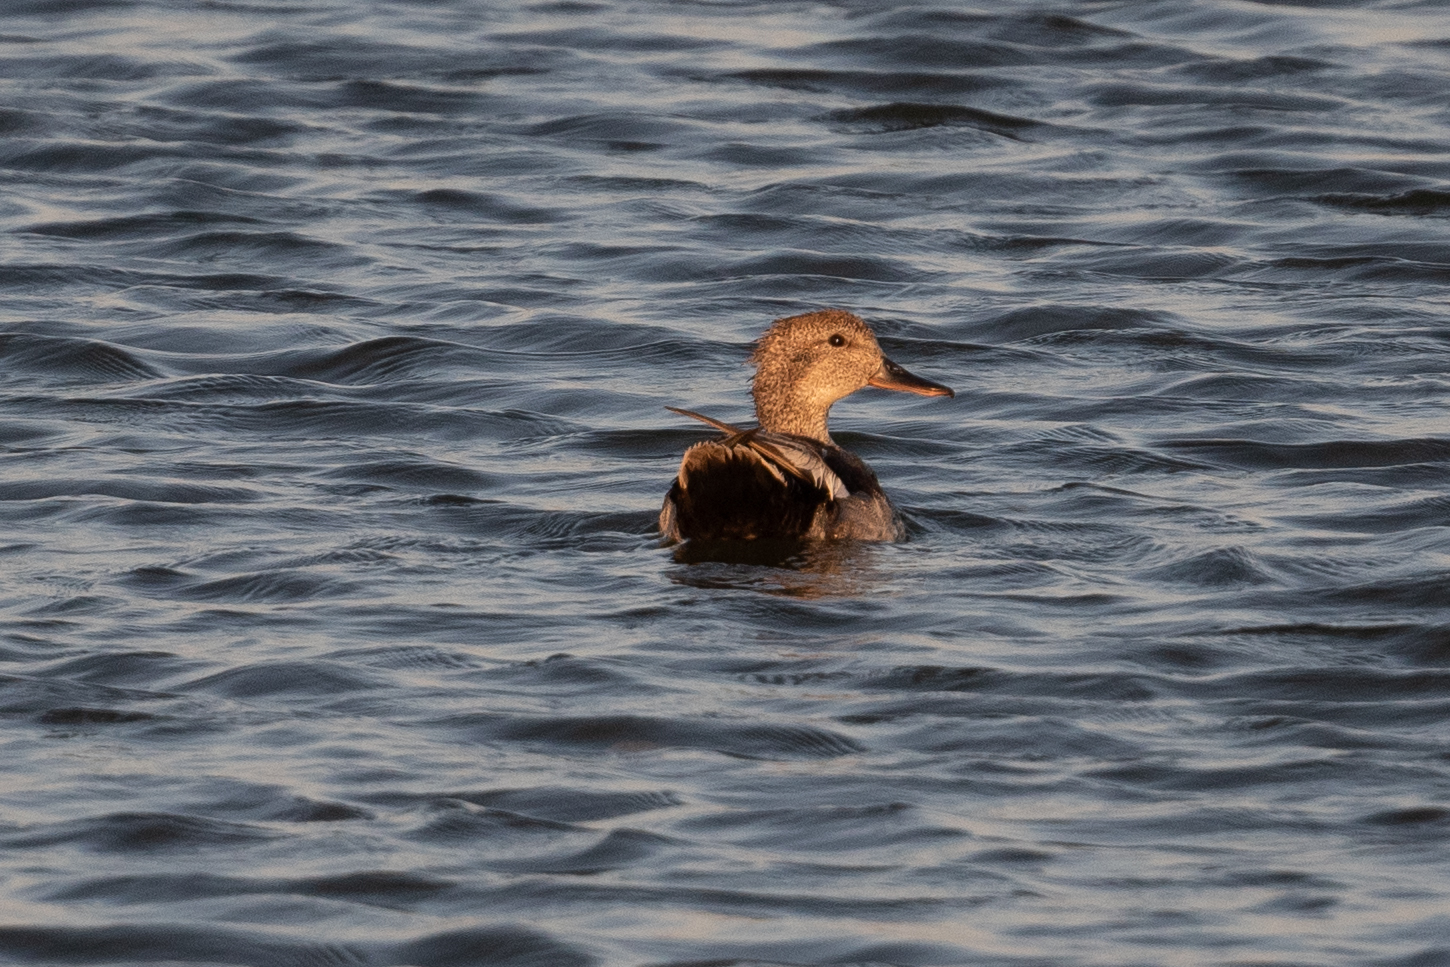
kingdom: Animalia
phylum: Chordata
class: Aves
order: Anseriformes
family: Anatidae
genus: Mareca
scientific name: Mareca strepera
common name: Gadwall
